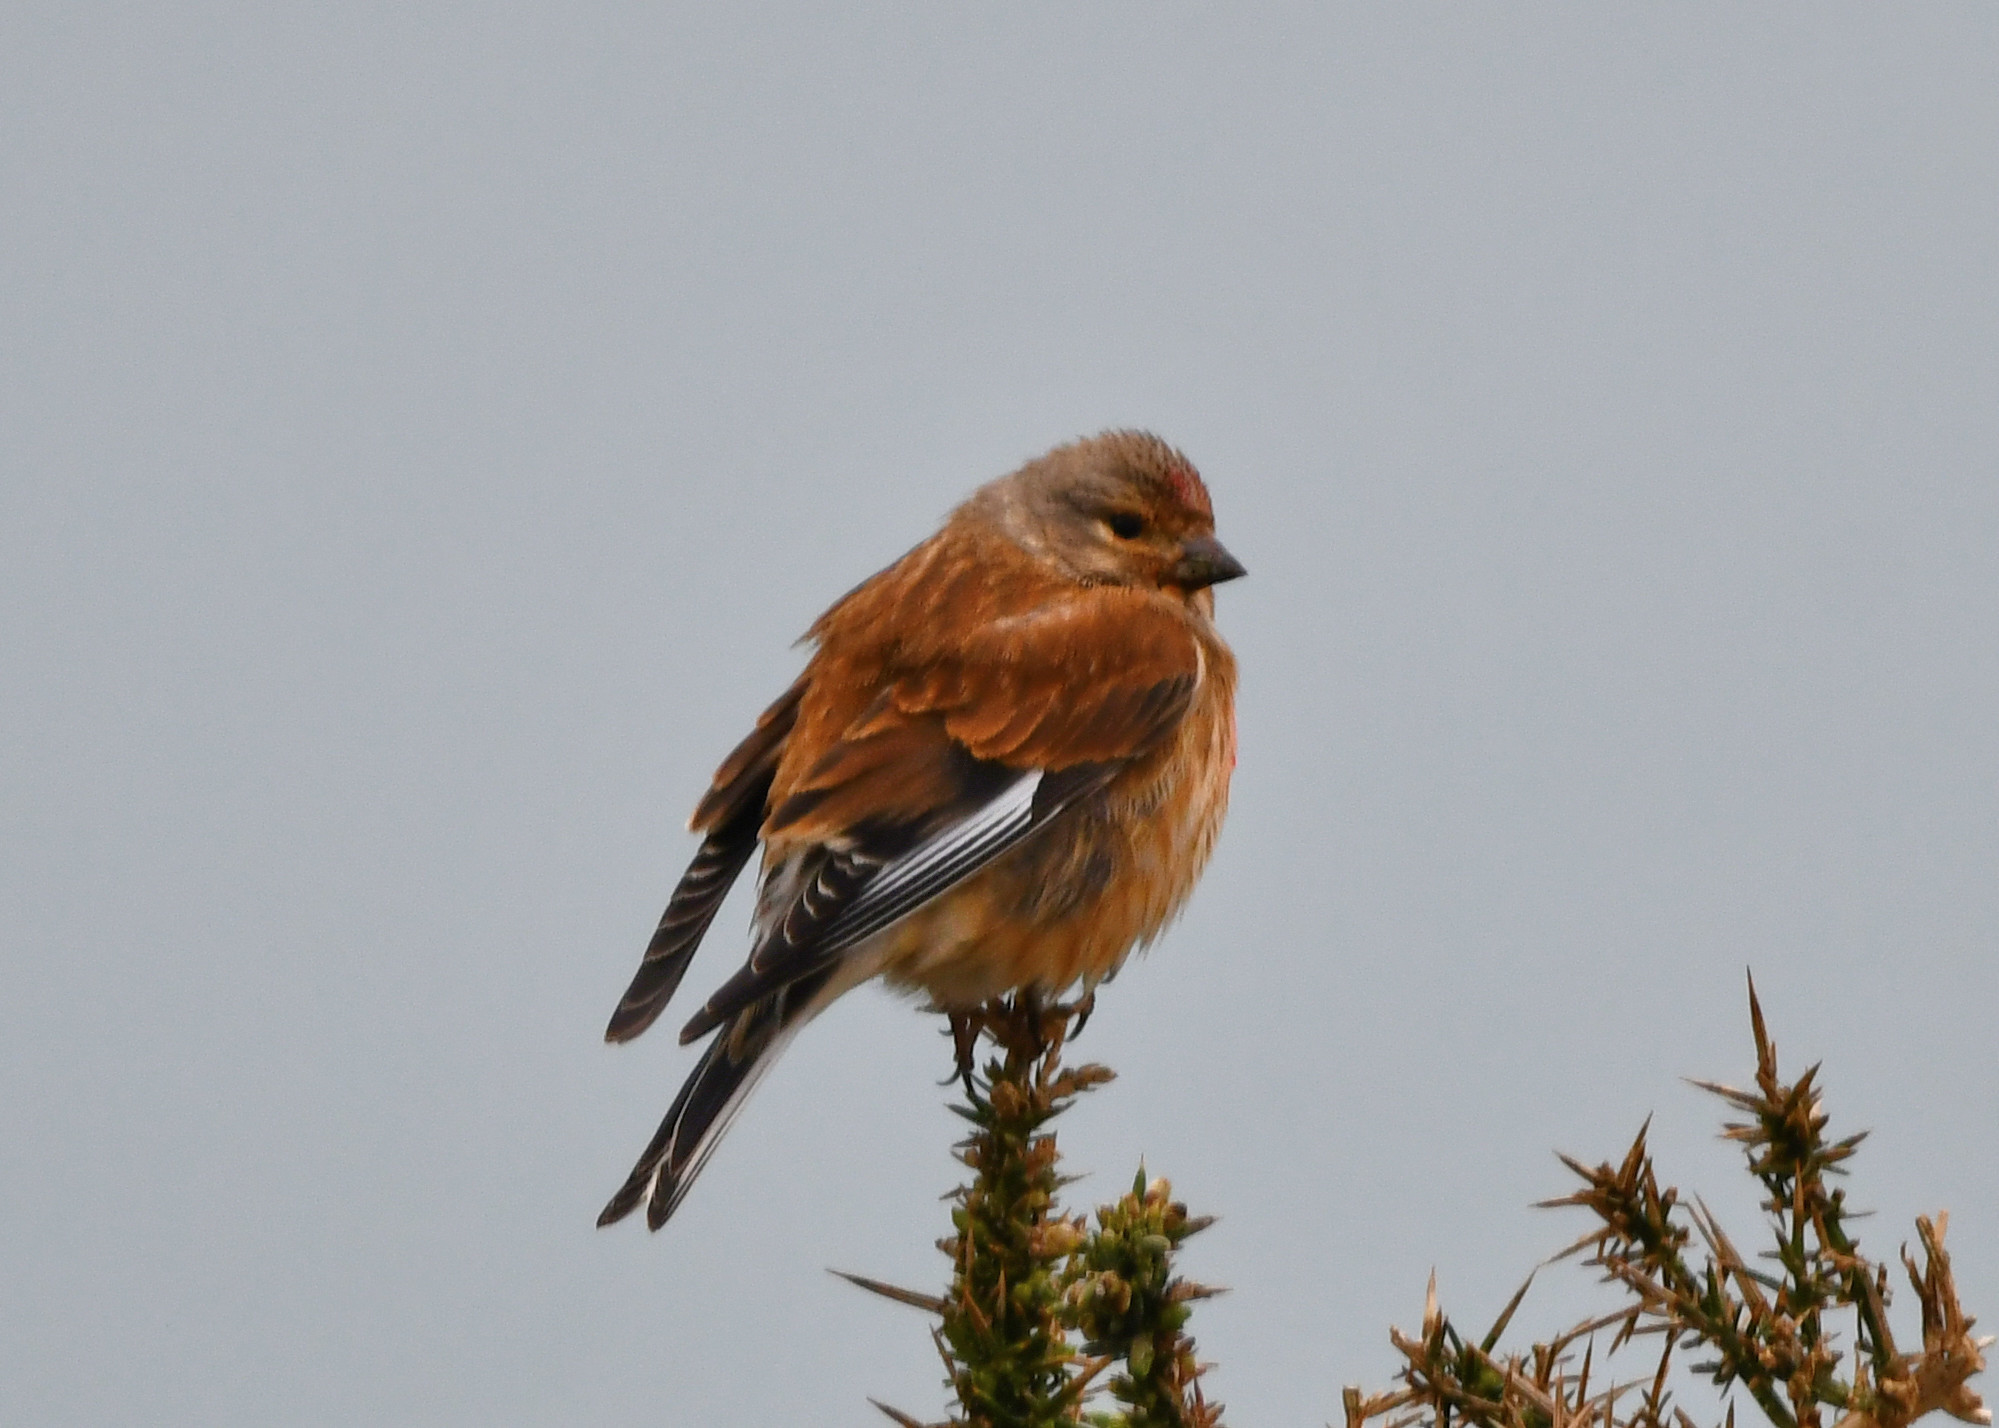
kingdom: Animalia
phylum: Chordata
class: Aves
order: Passeriformes
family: Fringillidae
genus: Linaria
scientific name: Linaria cannabina
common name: Common linnet
